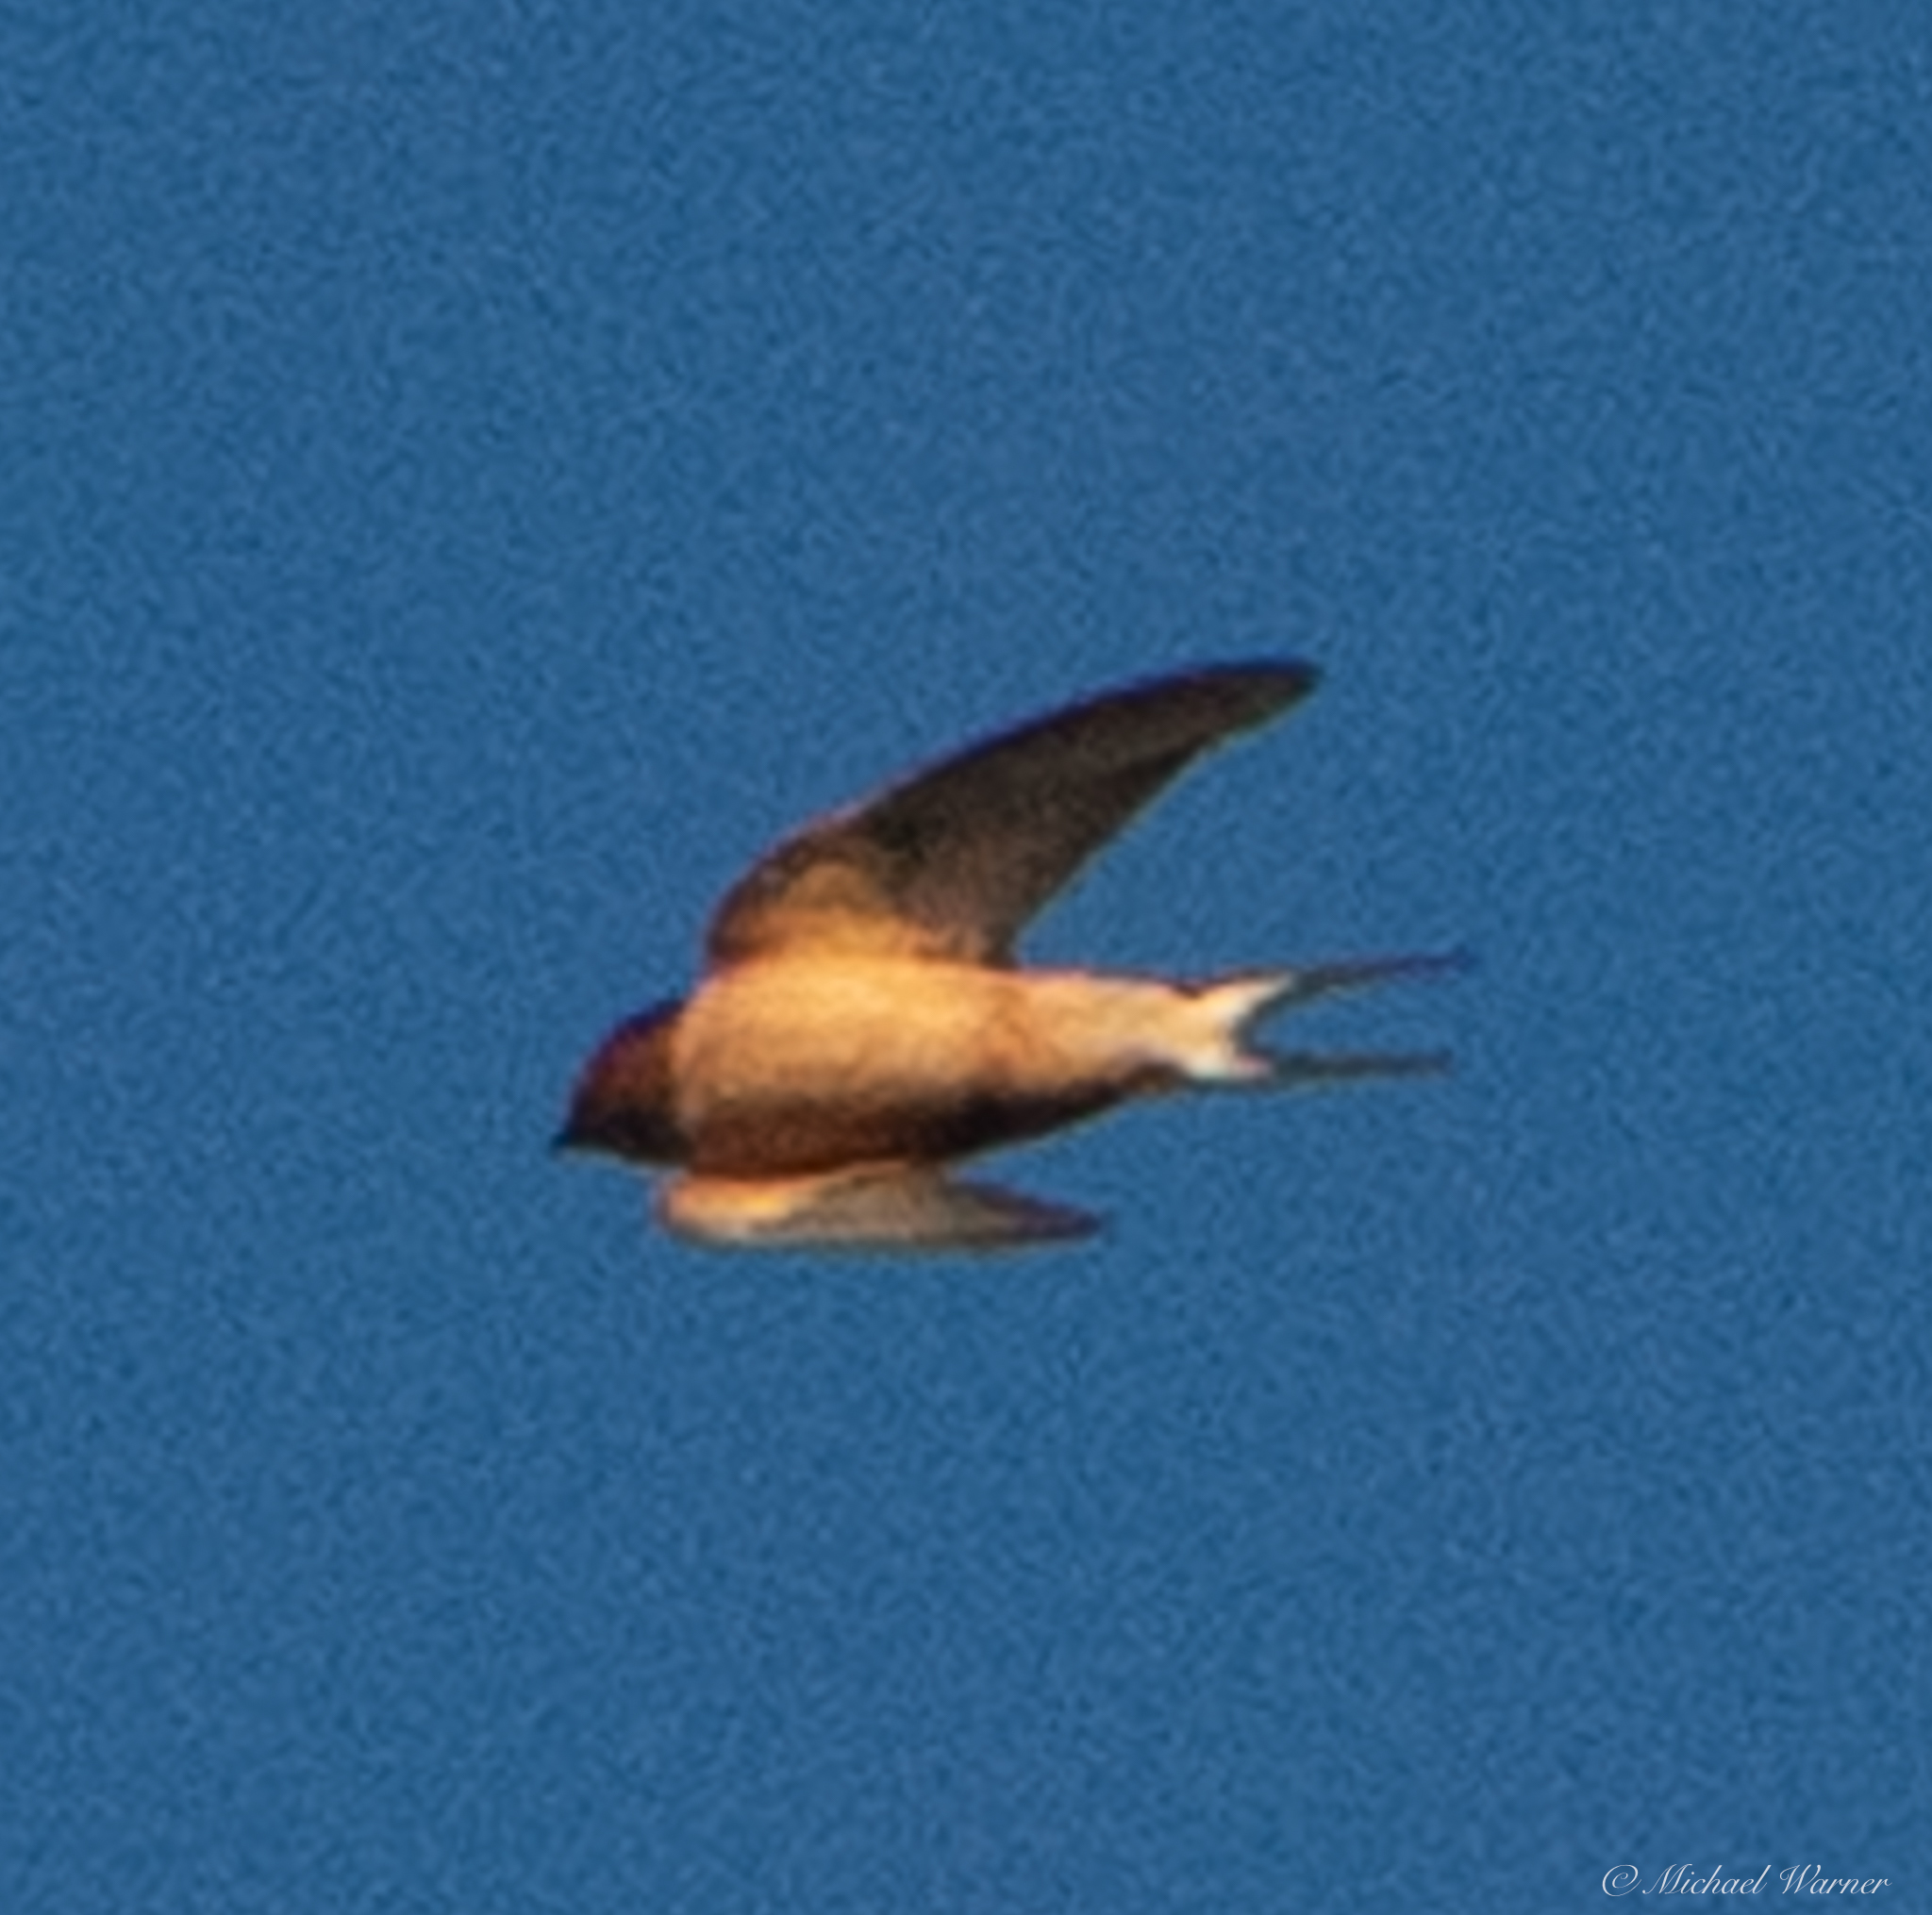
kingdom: Animalia
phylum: Chordata
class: Aves
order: Passeriformes
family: Hirundinidae
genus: Hirundo
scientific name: Hirundo rustica
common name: Barn swallow
